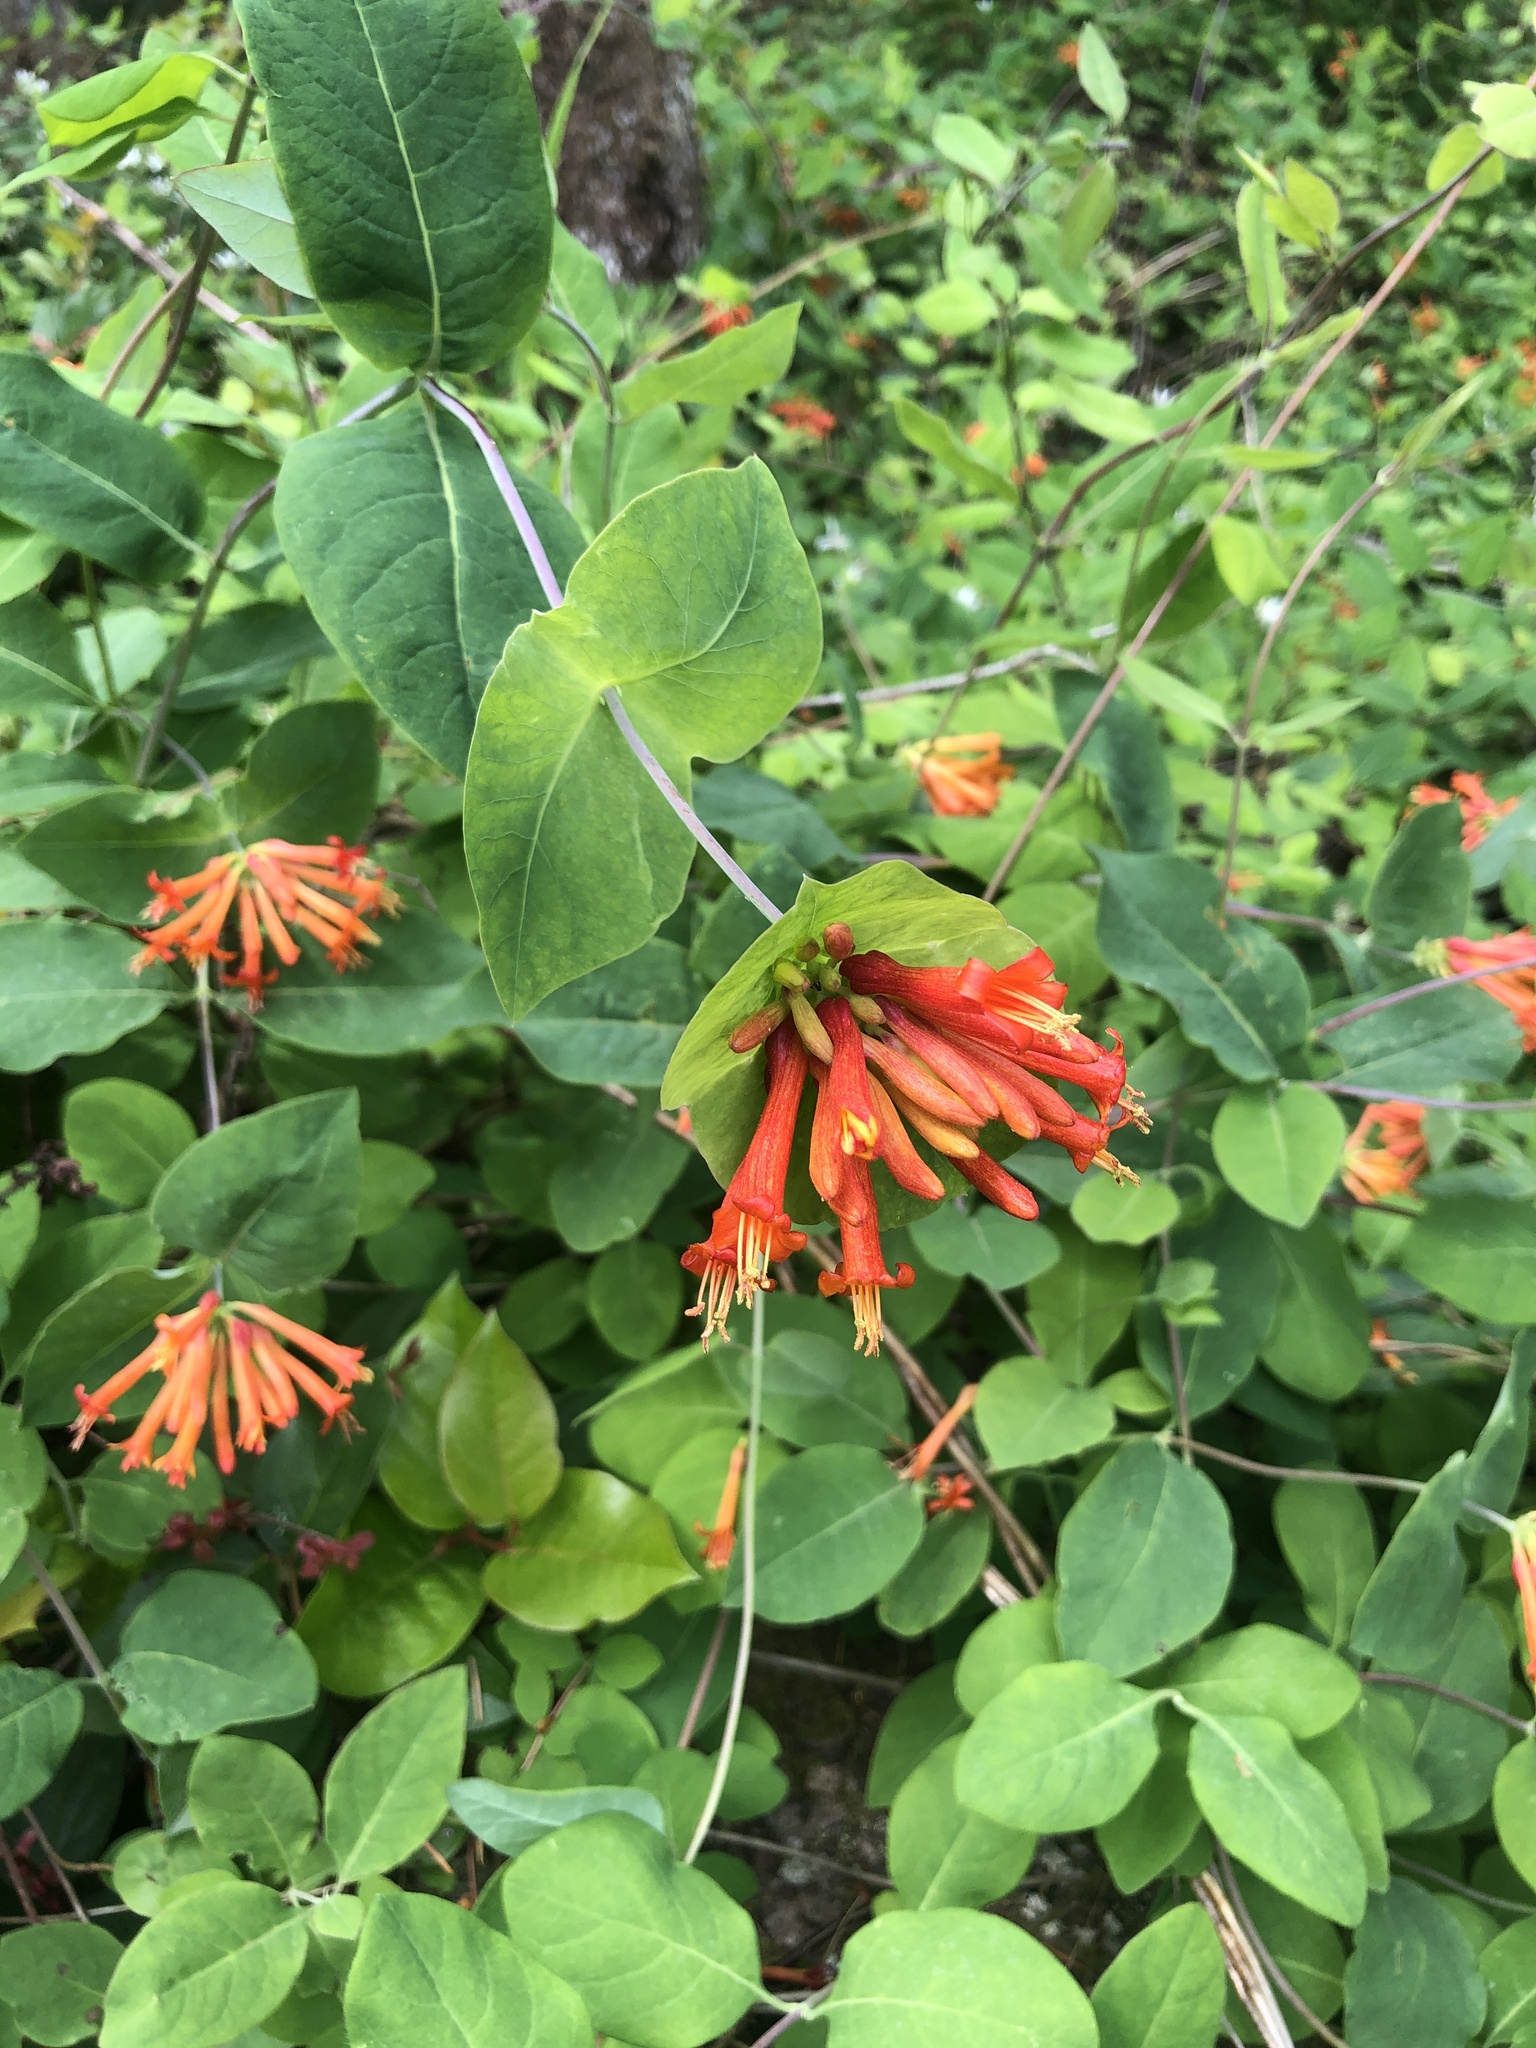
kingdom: Plantae
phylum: Tracheophyta
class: Magnoliopsida
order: Dipsacales
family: Caprifoliaceae
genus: Lonicera
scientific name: Lonicera ciliosa
